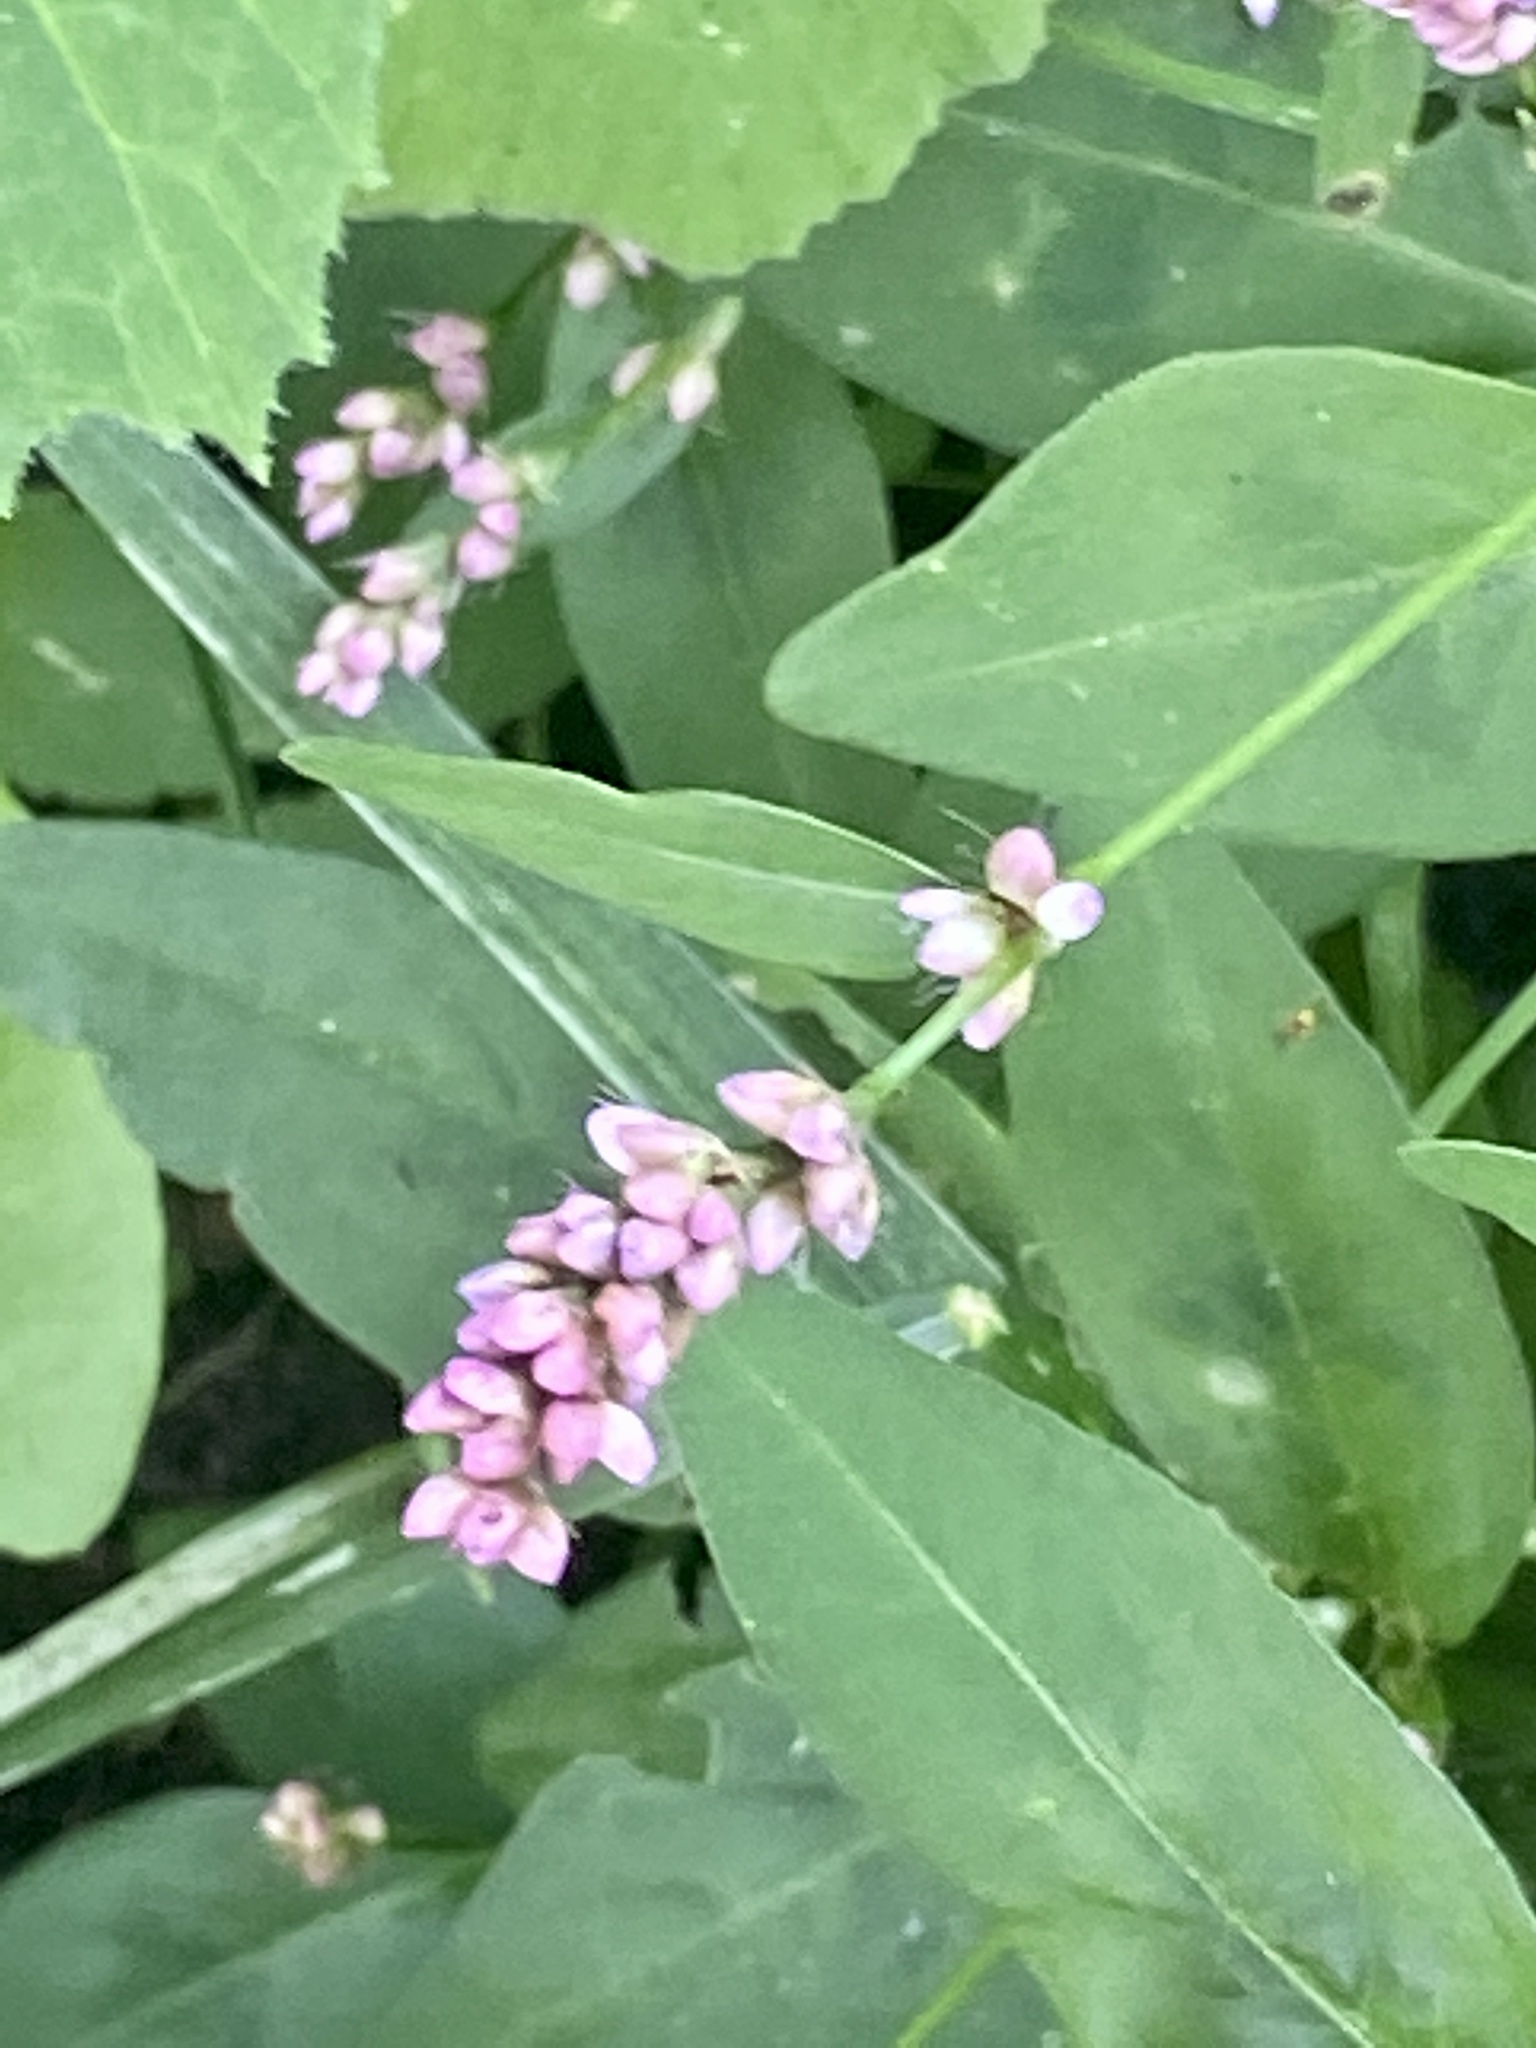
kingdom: Plantae
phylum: Tracheophyta
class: Magnoliopsida
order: Caryophyllales
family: Polygonaceae
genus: Persicaria
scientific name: Persicaria longiseta
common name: Bristly lady's-thumb
